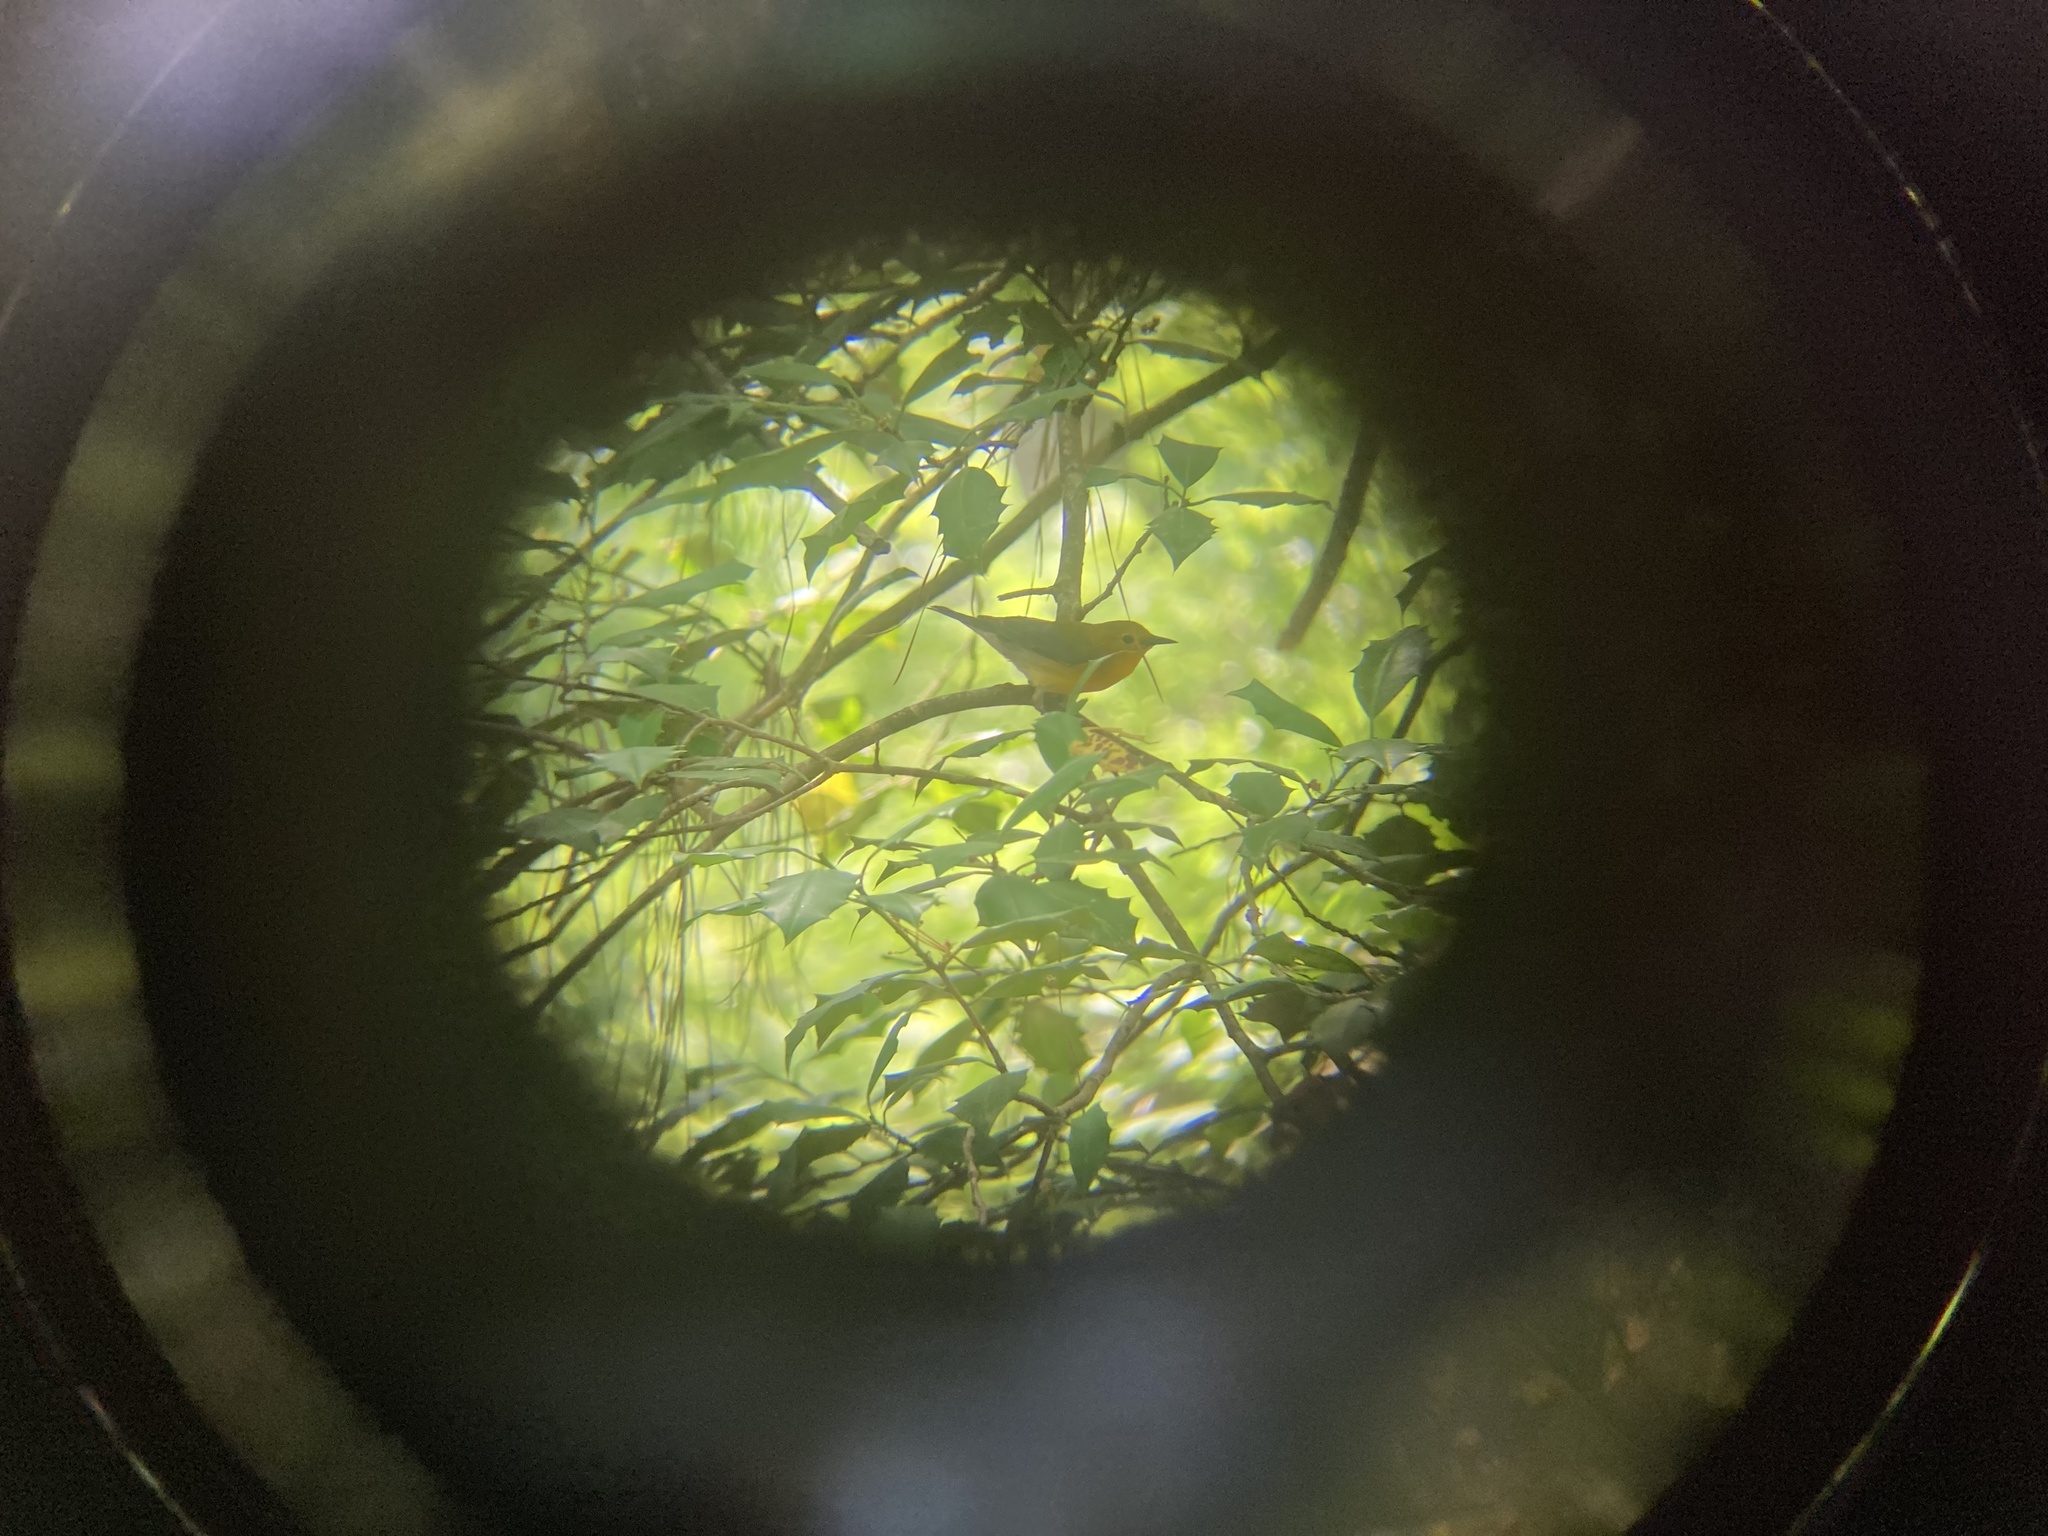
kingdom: Animalia
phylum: Chordata
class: Aves
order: Passeriformes
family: Parulidae
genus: Protonotaria
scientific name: Protonotaria citrea
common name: Prothonotary warbler
